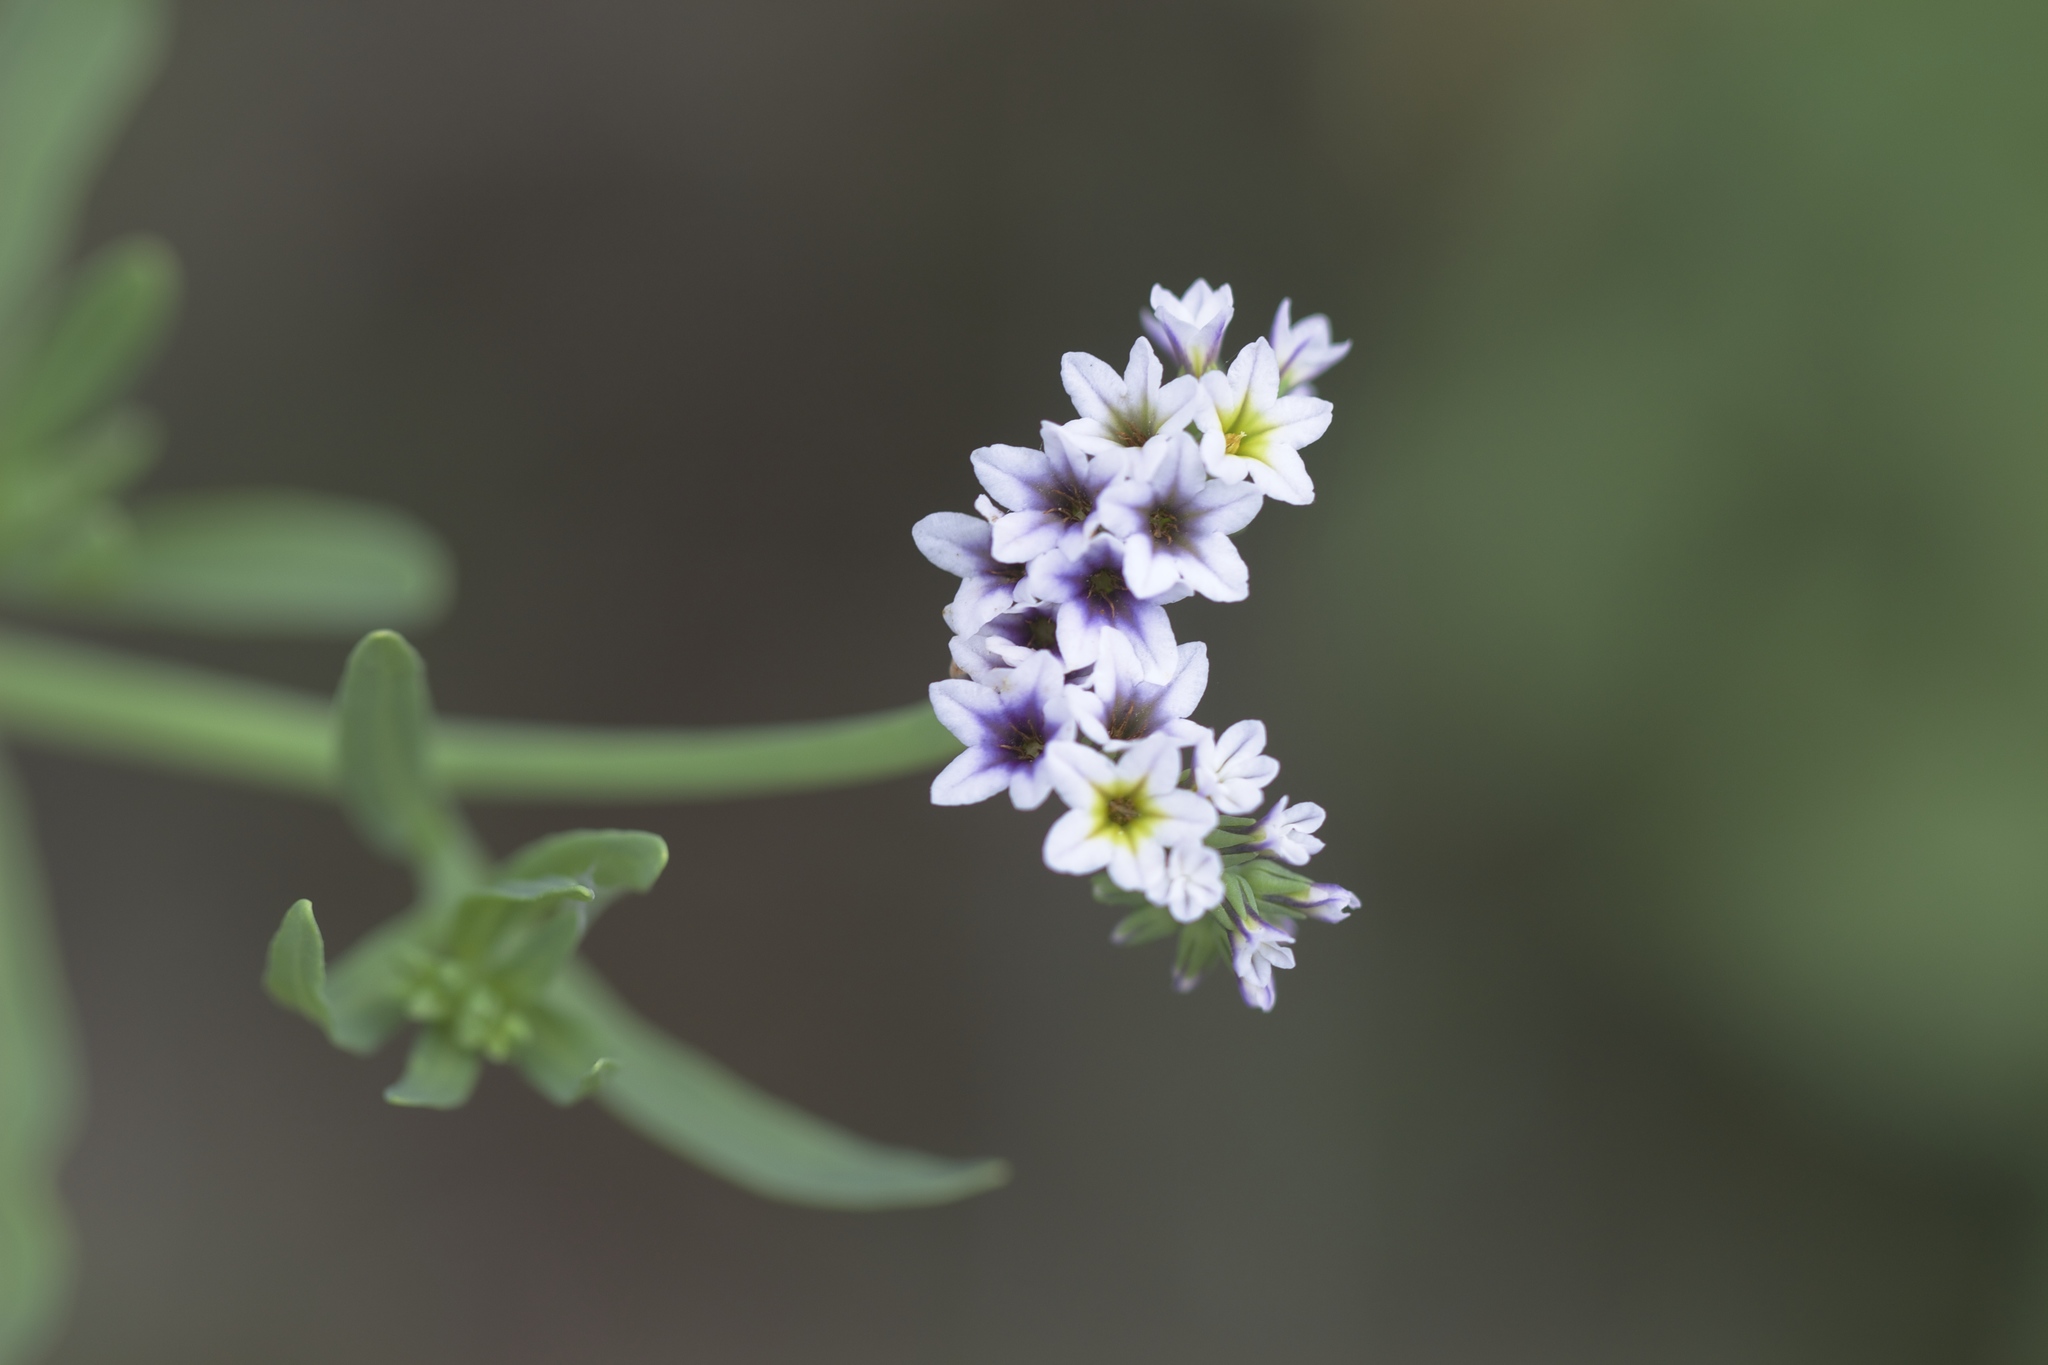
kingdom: Plantae
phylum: Tracheophyta
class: Magnoliopsida
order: Boraginales
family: Heliotropiaceae
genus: Heliotropium
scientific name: Heliotropium curassavicum
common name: Seaside heliotrope
